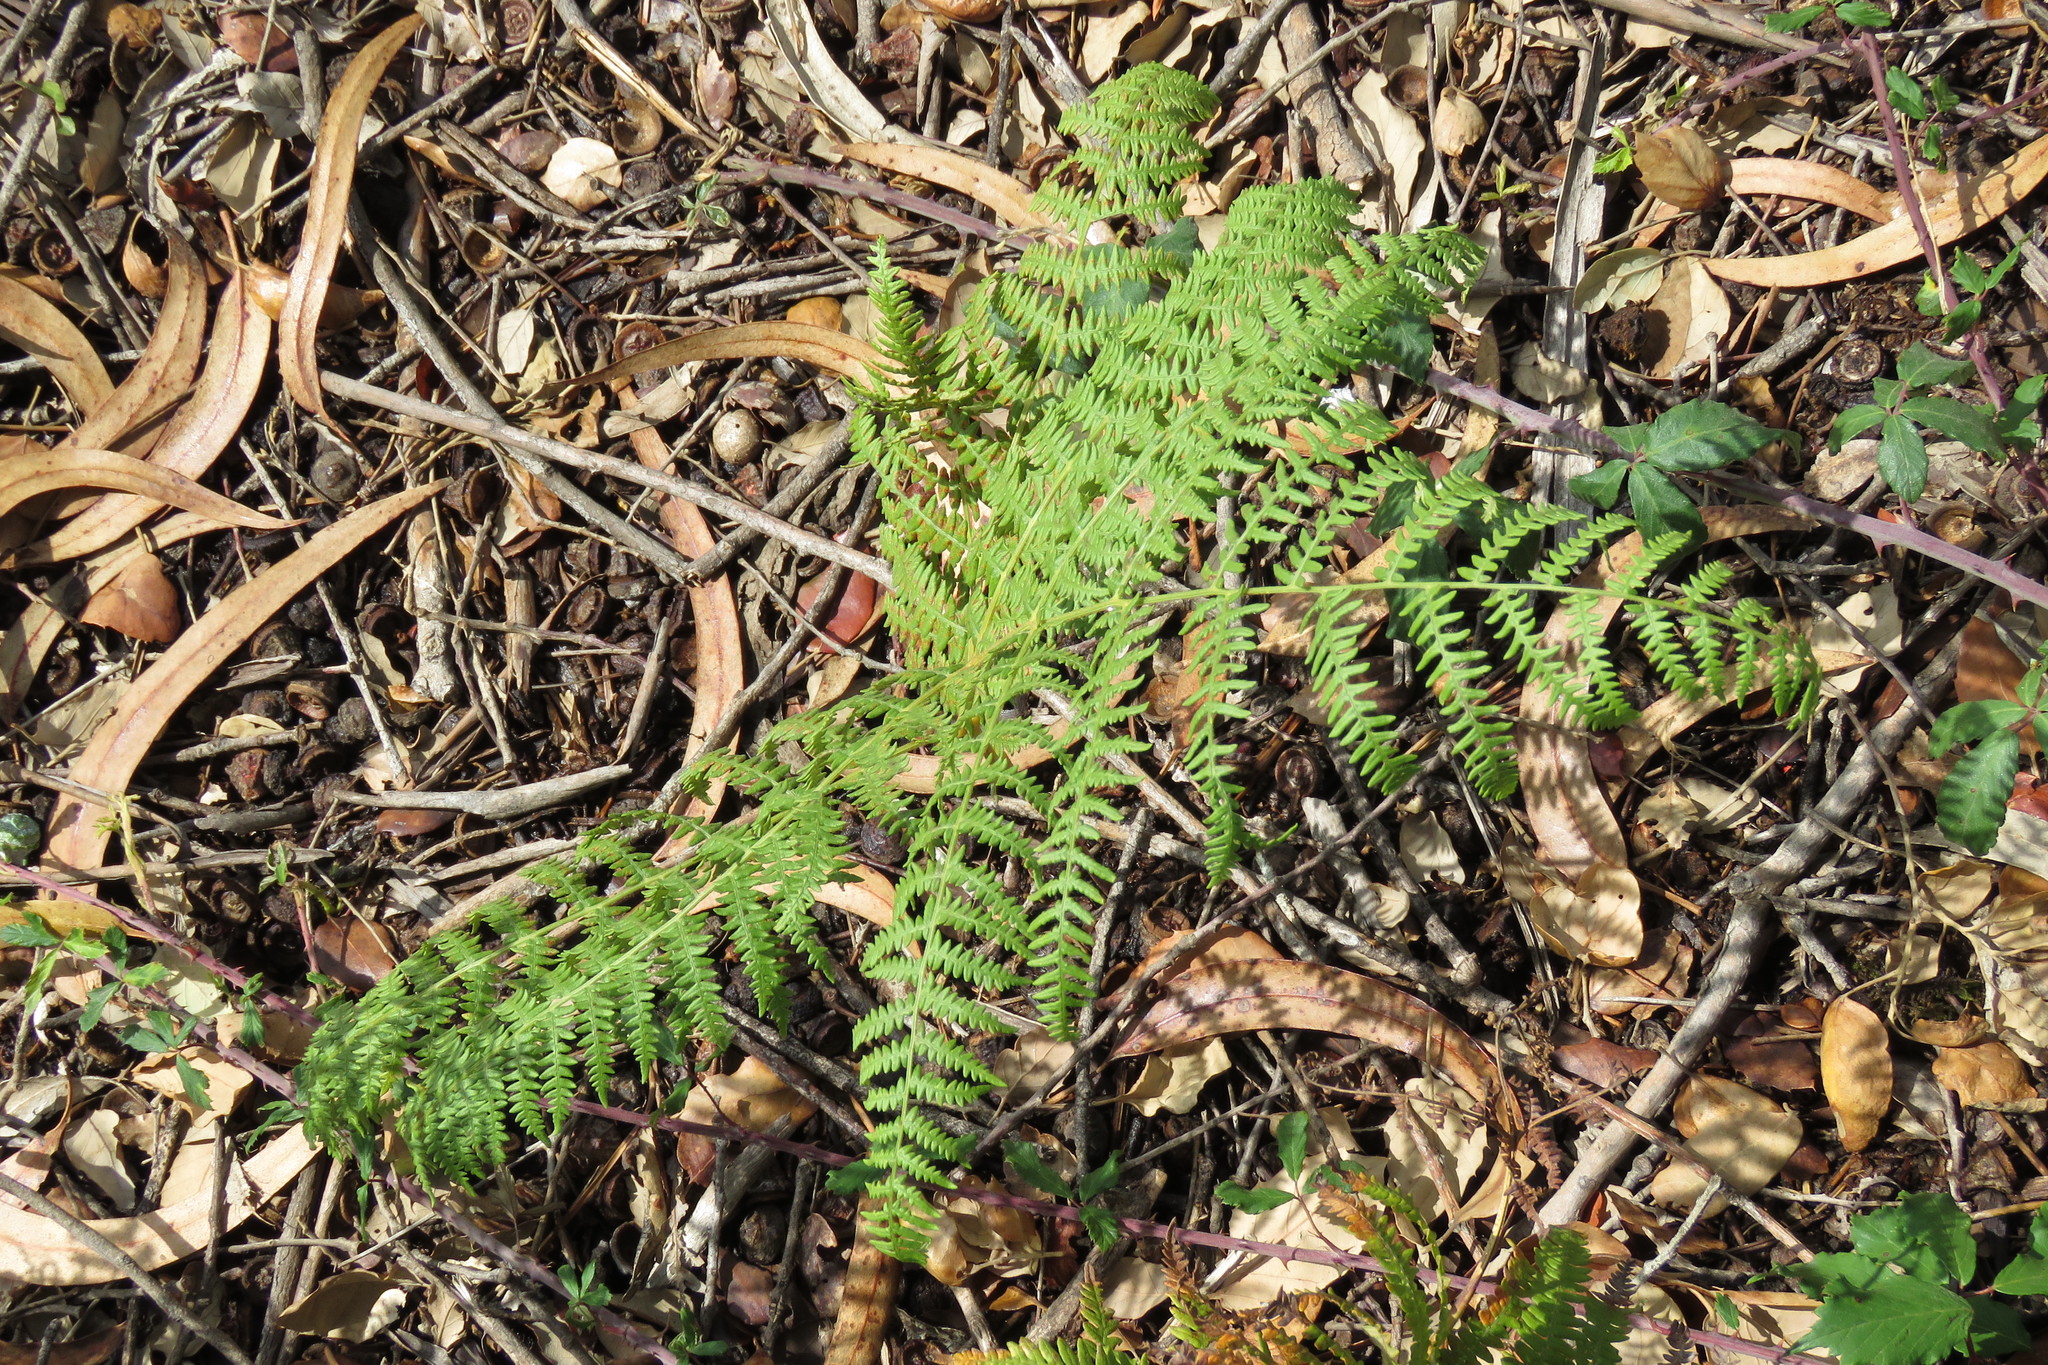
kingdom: Plantae
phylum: Tracheophyta
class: Polypodiopsida
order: Polypodiales
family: Dennstaedtiaceae
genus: Pteridium
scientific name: Pteridium aquilinum
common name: Bracken
